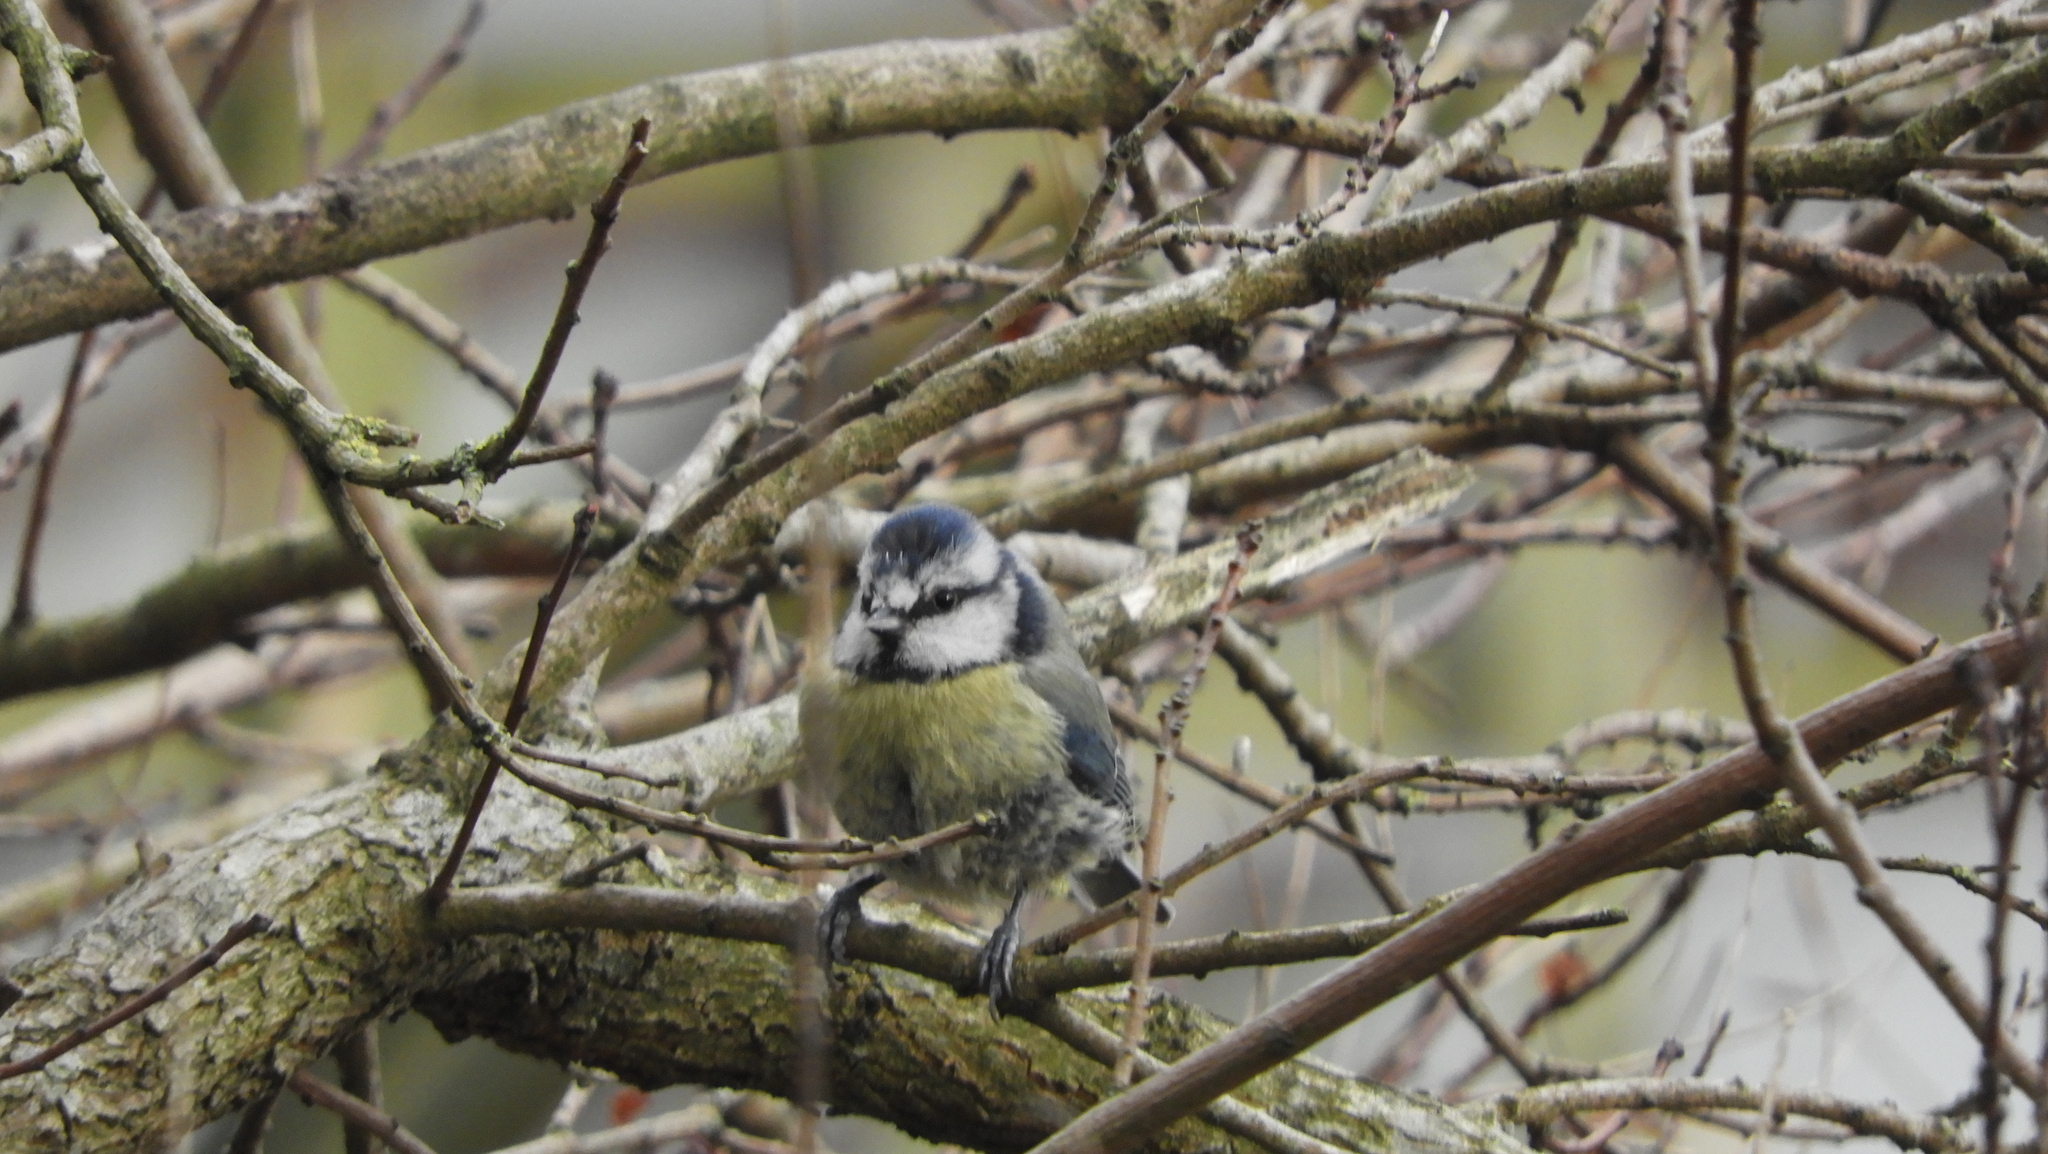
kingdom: Animalia
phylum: Chordata
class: Aves
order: Passeriformes
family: Paridae
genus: Cyanistes
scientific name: Cyanistes caeruleus
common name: Eurasian blue tit
